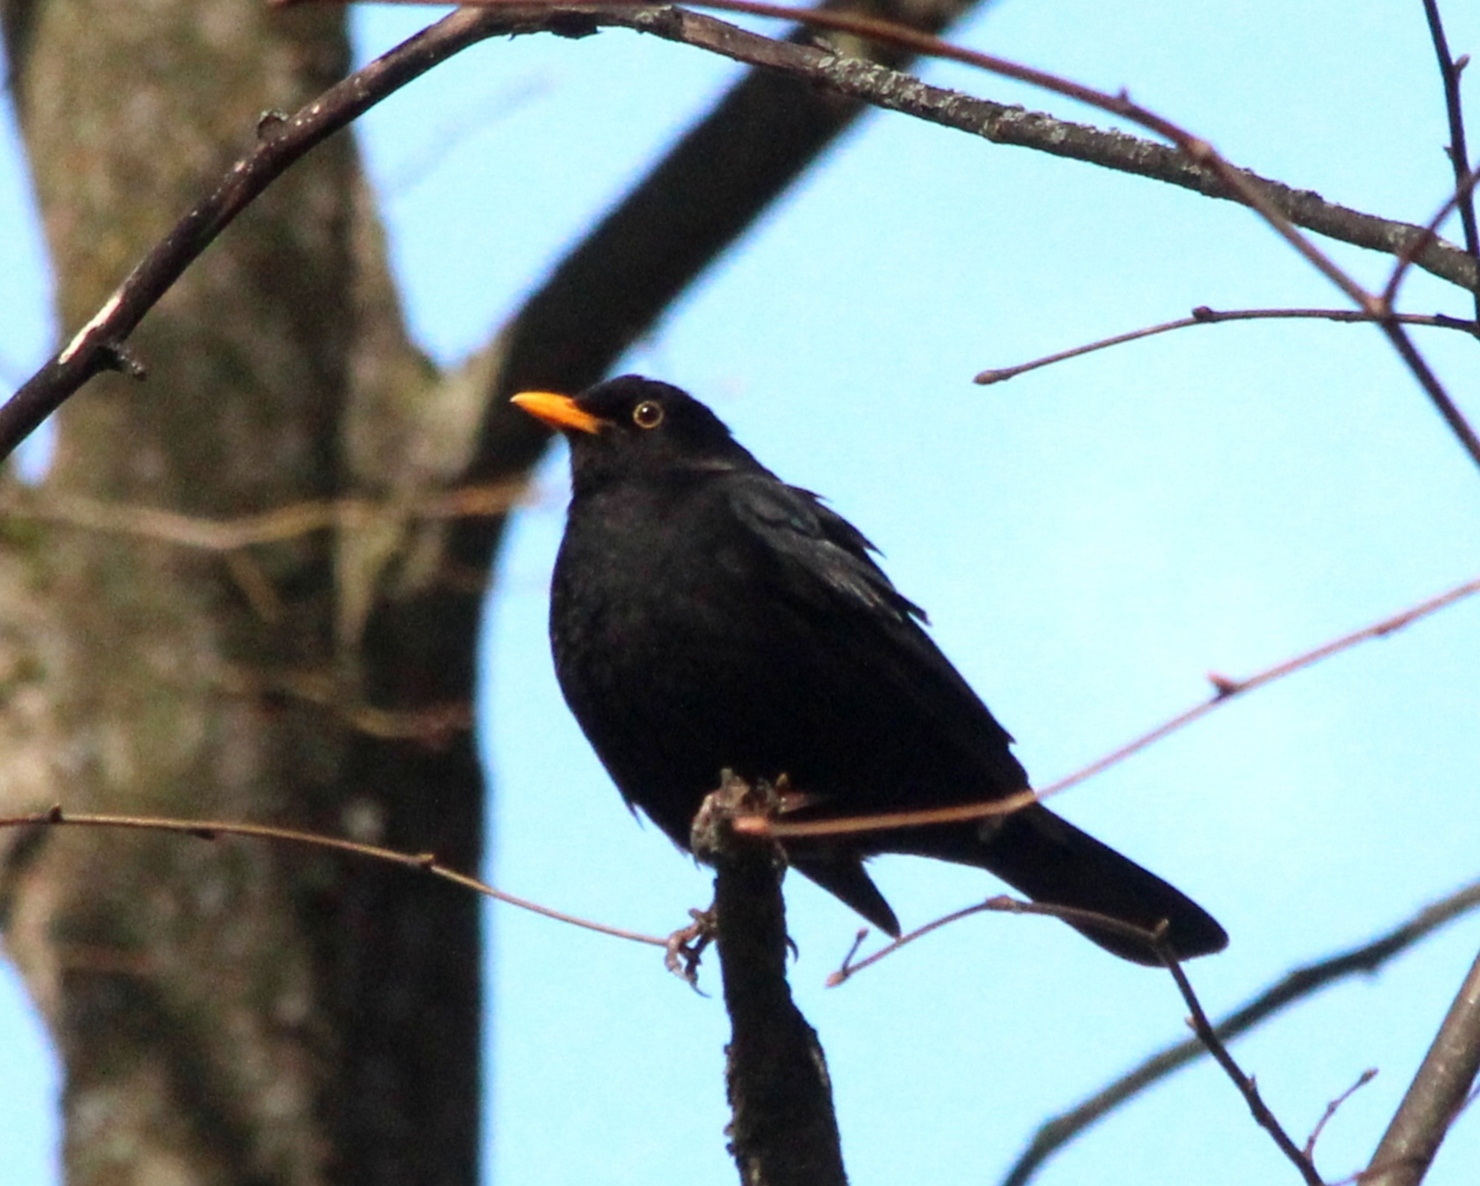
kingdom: Animalia
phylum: Chordata
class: Aves
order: Passeriformes
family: Turdidae
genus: Turdus
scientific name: Turdus merula
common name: Common blackbird
